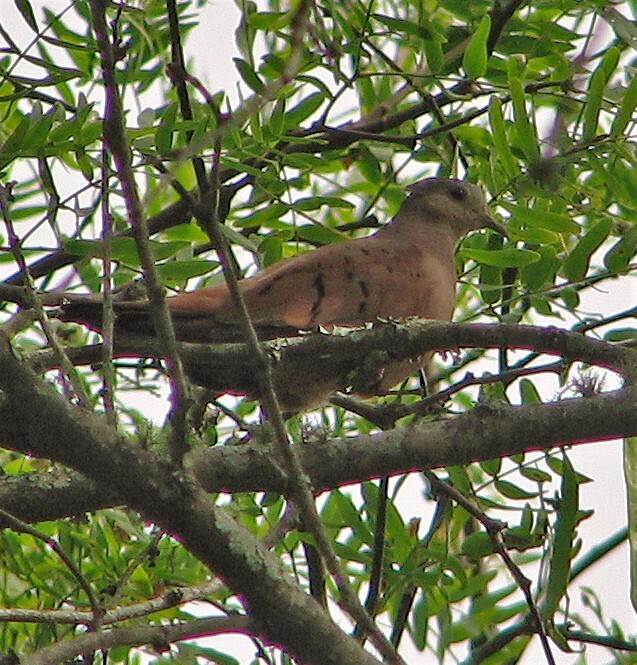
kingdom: Animalia
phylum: Chordata
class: Aves
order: Columbiformes
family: Columbidae
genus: Columbina
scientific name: Columbina talpacoti
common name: Ruddy ground dove
